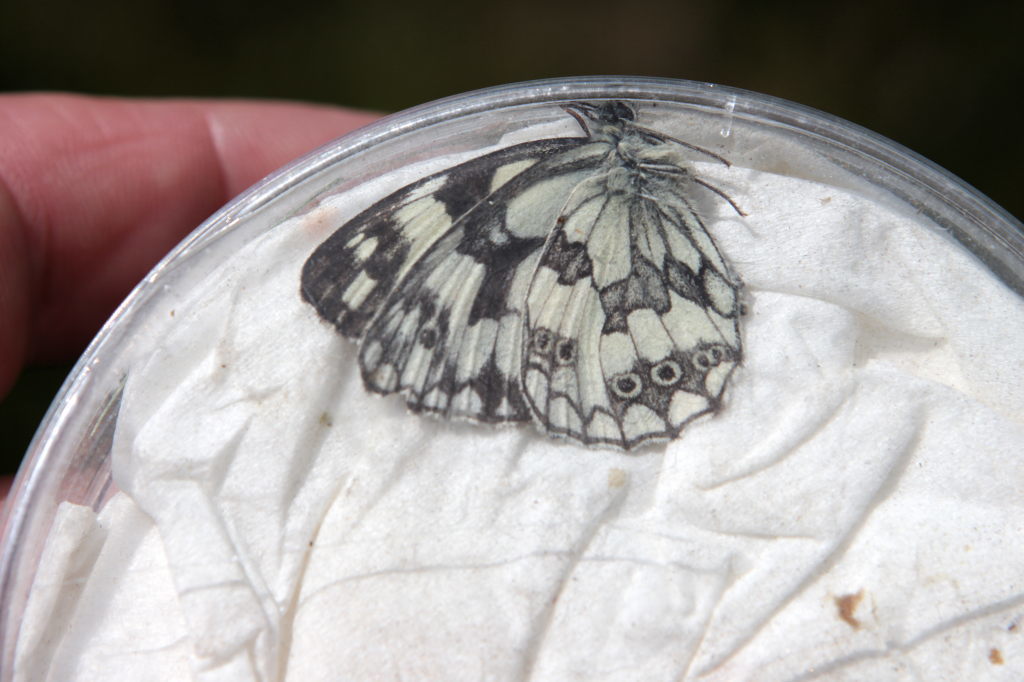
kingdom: Animalia
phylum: Arthropoda
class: Insecta
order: Lepidoptera
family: Nymphalidae
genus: Melanargia
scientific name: Melanargia galathea
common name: Marbled white
